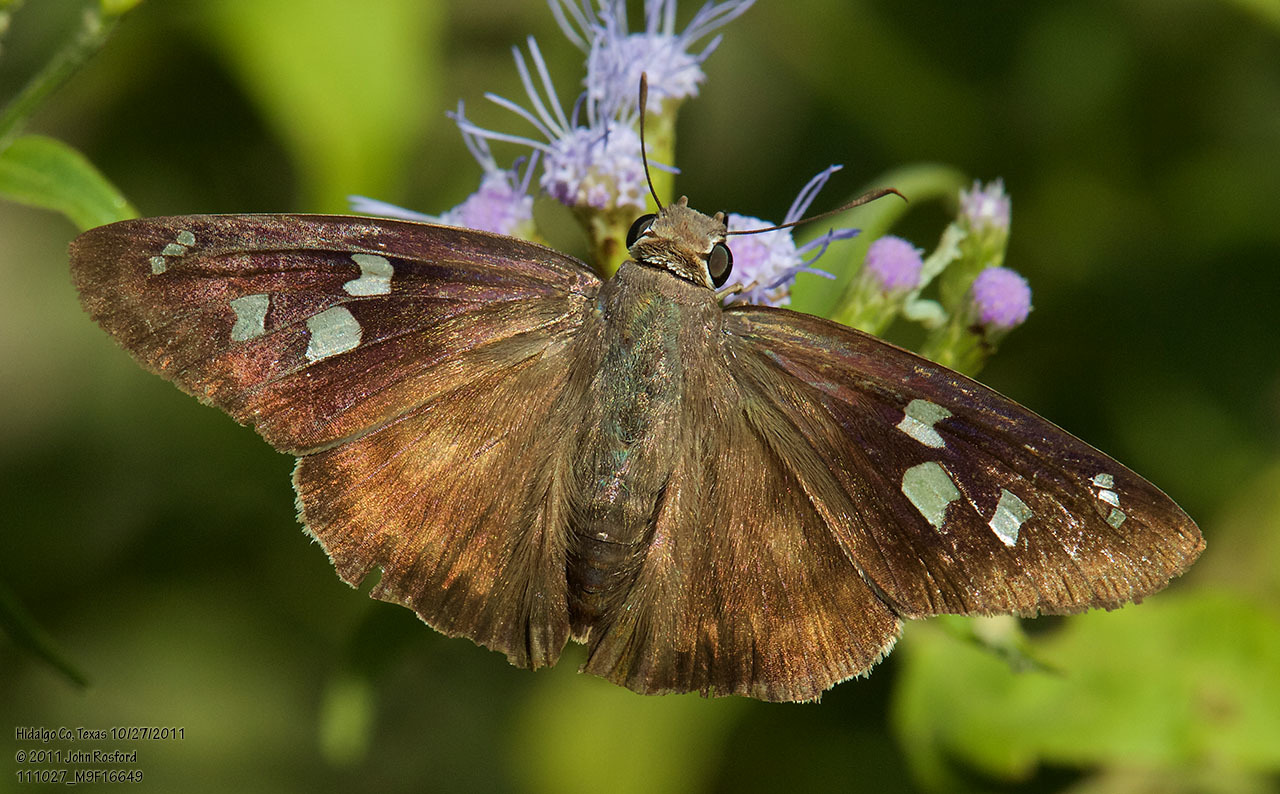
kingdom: Animalia
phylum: Arthropoda
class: Insecta
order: Lepidoptera
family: Hesperiidae
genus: Polygonus
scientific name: Polygonus leo
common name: Hammoch skipper
